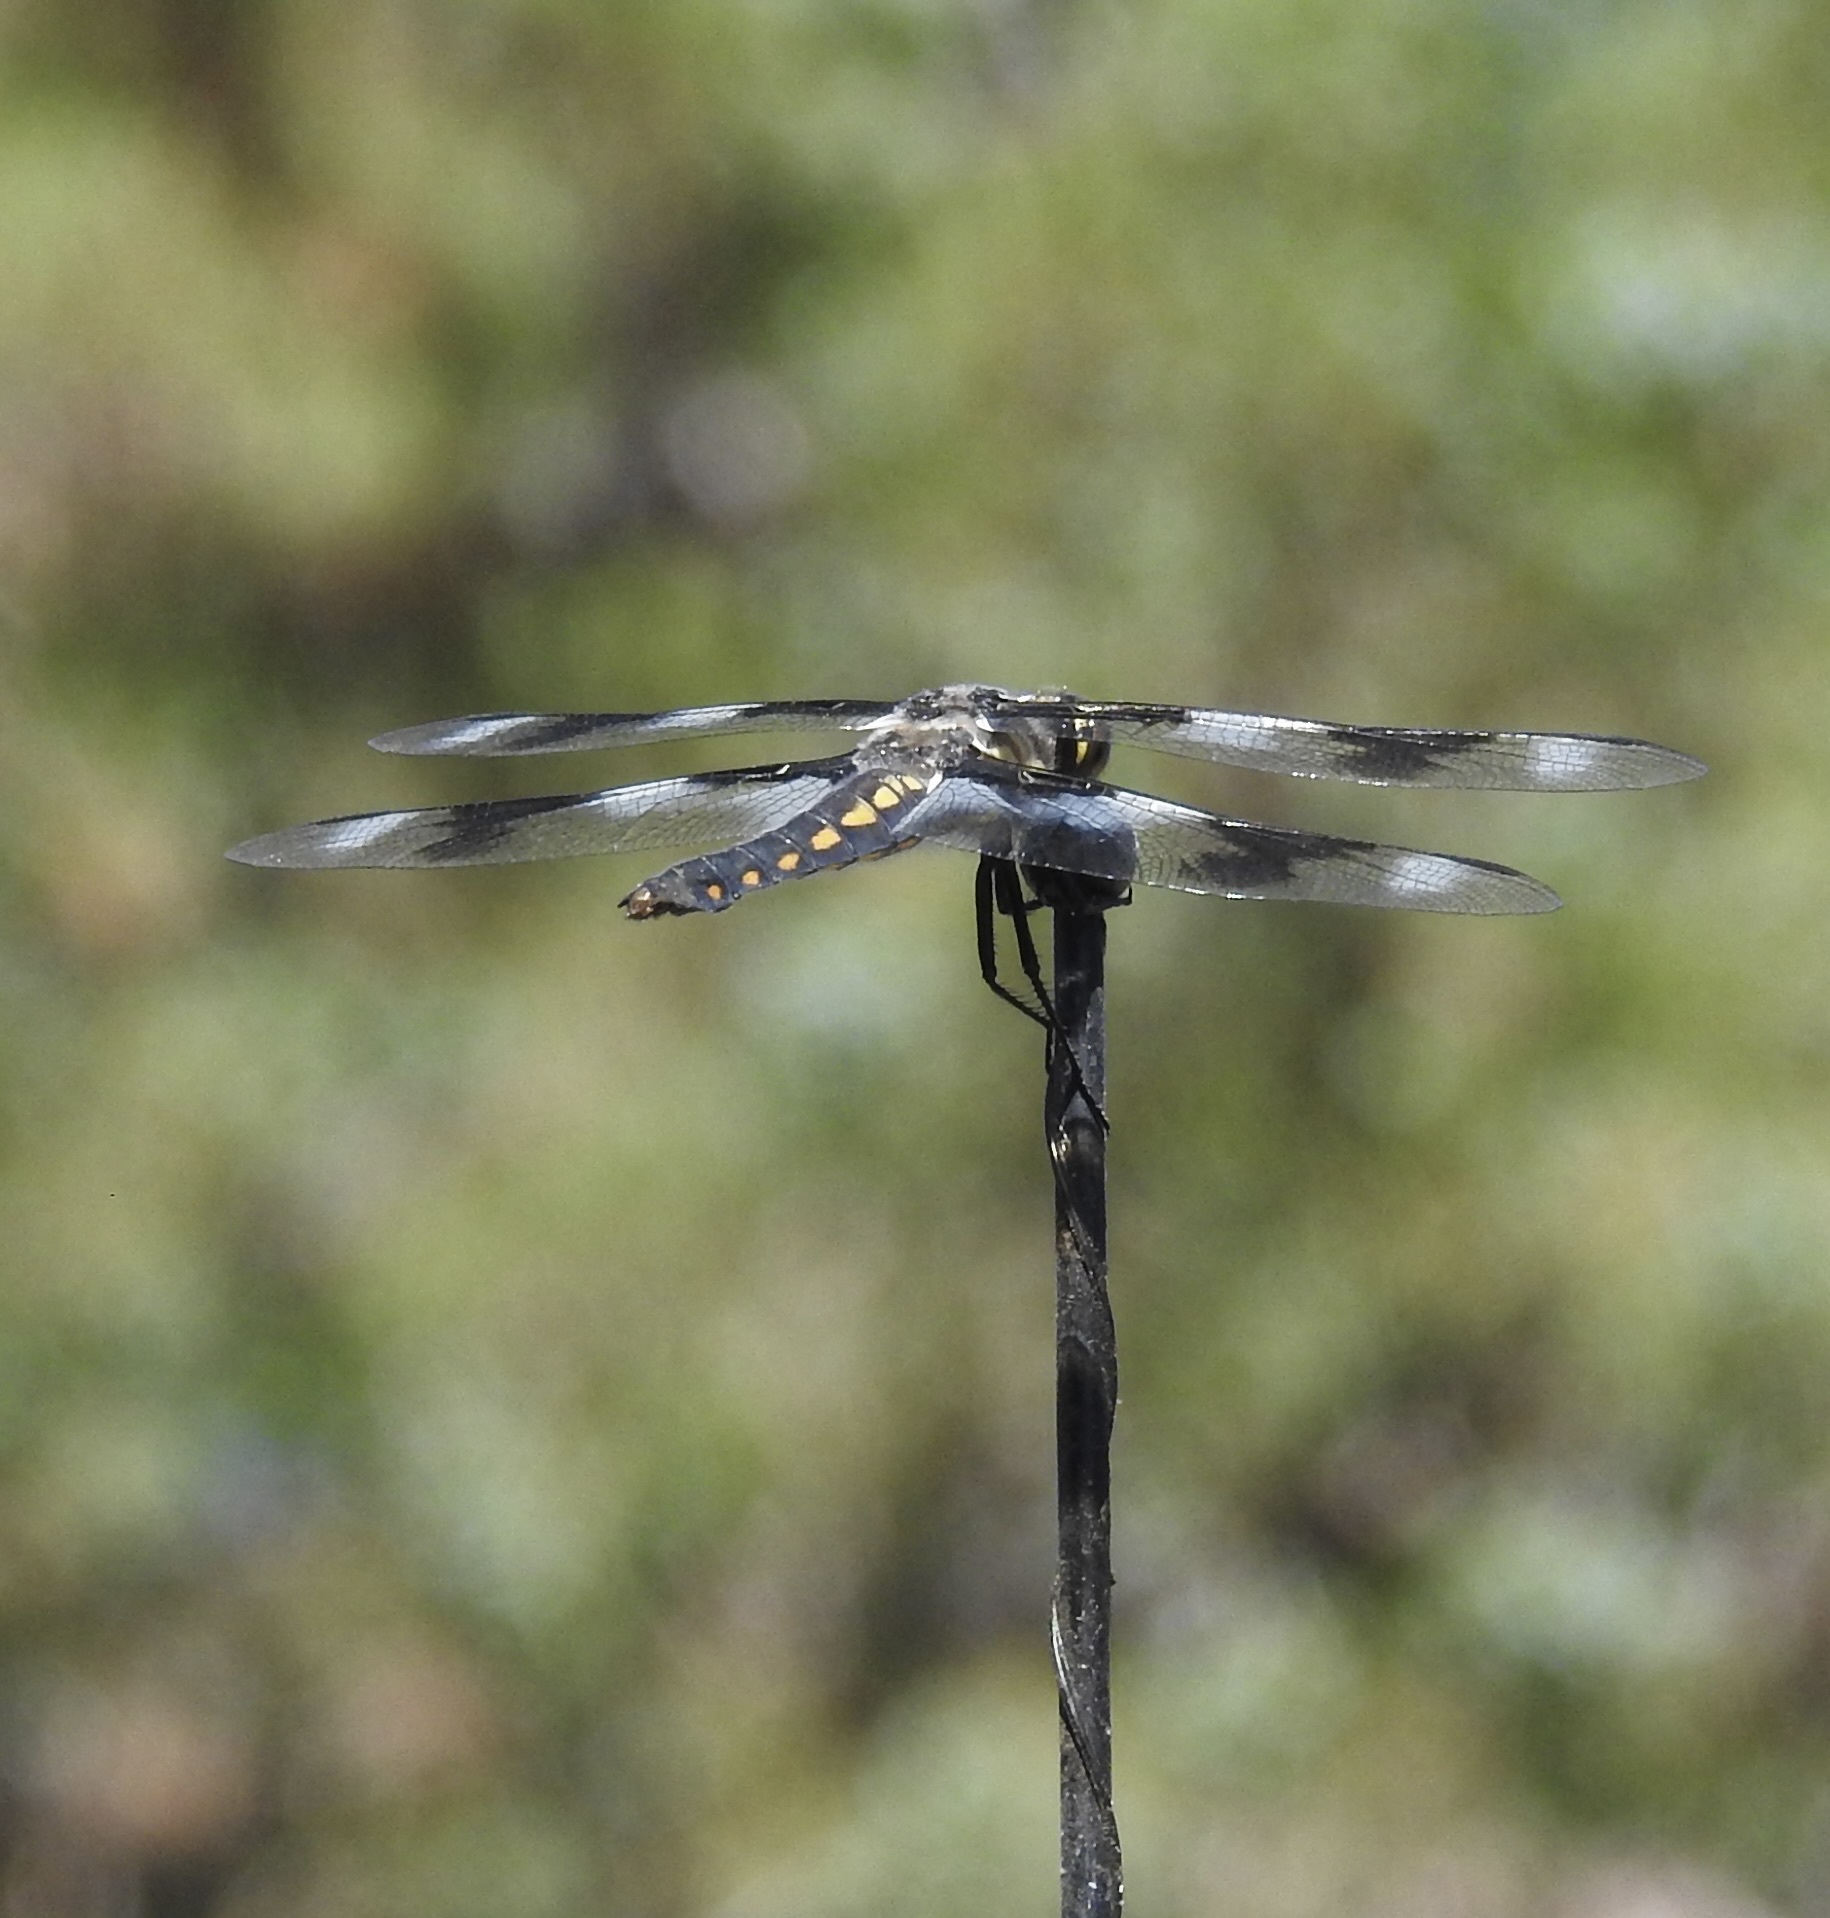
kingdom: Animalia
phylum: Arthropoda
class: Insecta
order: Odonata
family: Libellulidae
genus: Libellula
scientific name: Libellula forensis
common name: Eight-spotted skimmer
